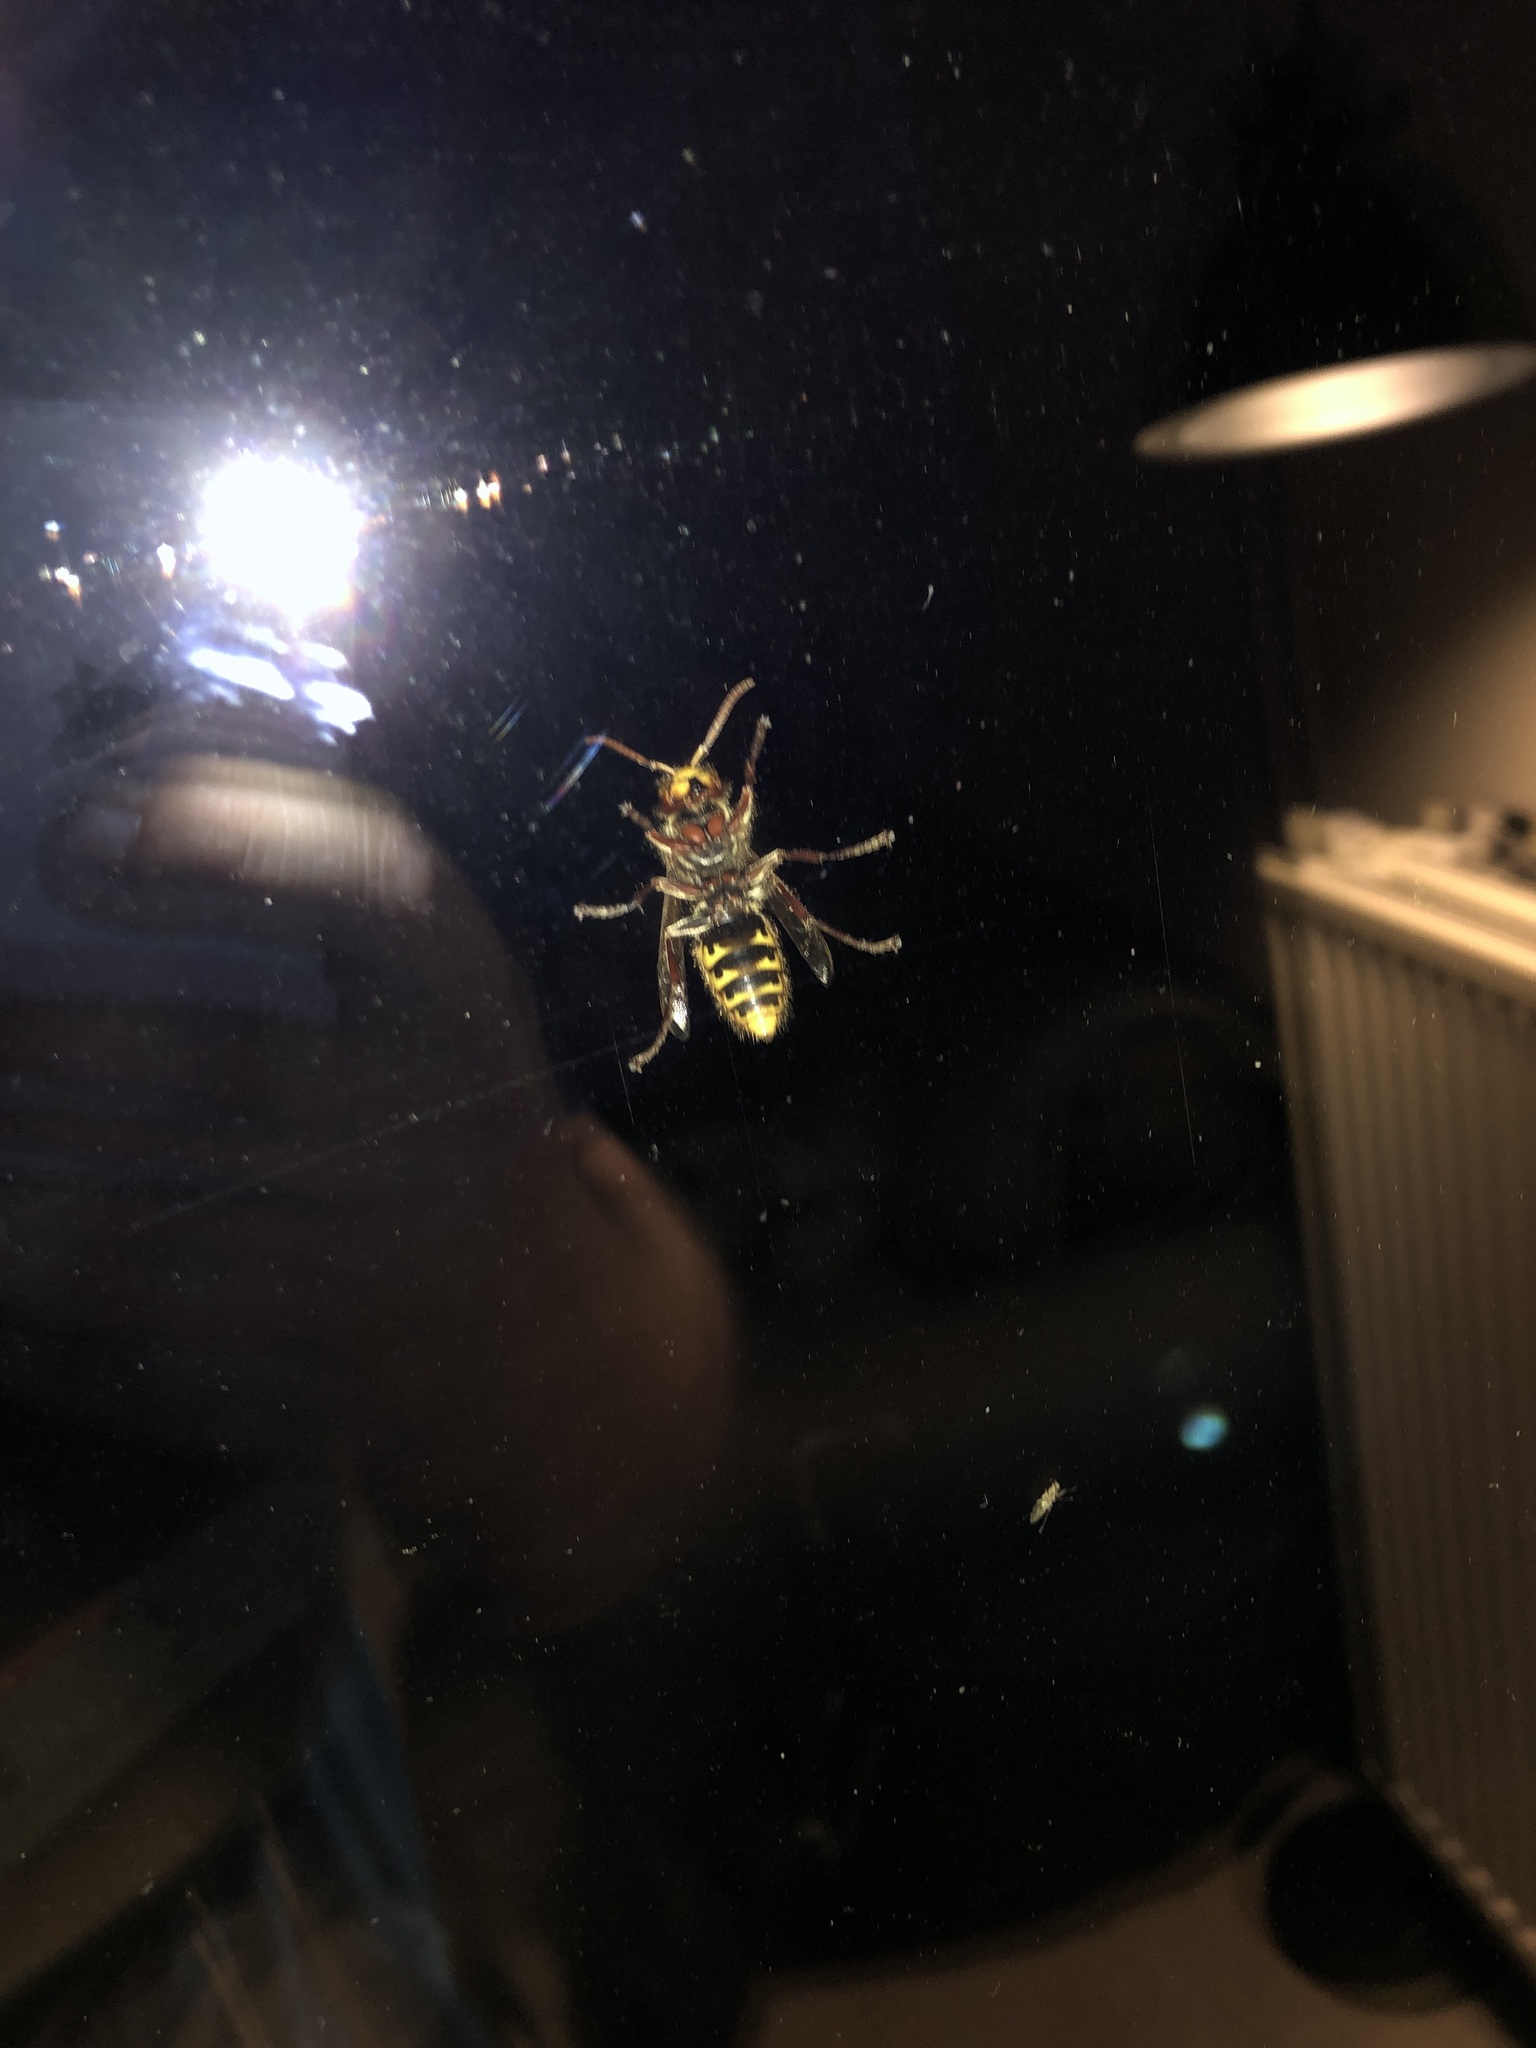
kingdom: Animalia
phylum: Arthropoda
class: Insecta
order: Hymenoptera
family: Vespidae
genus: Vespa
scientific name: Vespa crabro
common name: Hornet
